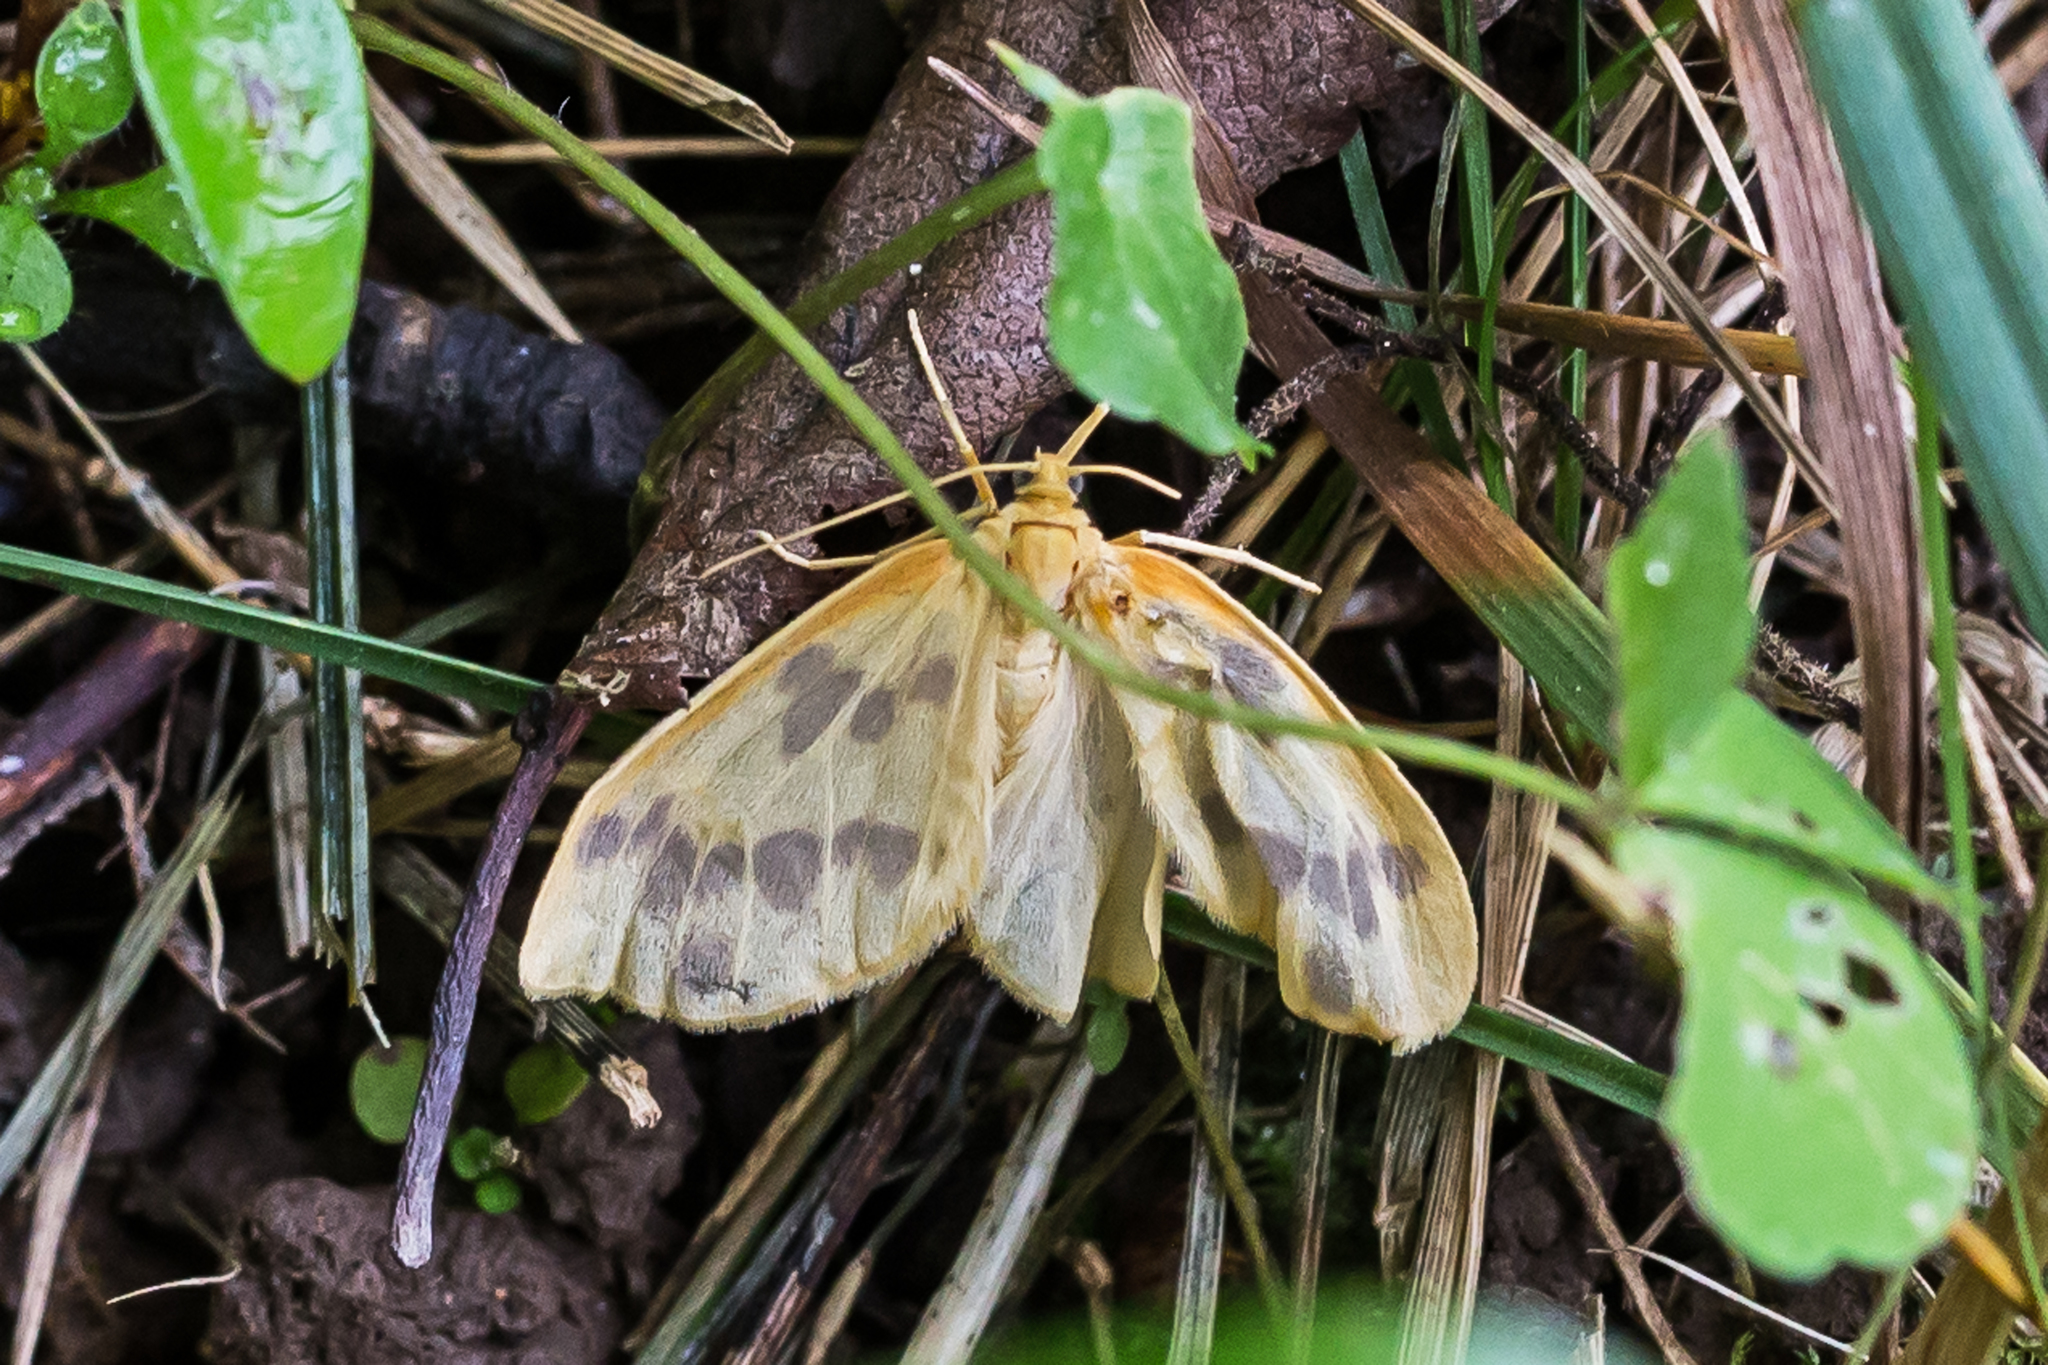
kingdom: Animalia
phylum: Arthropoda
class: Insecta
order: Lepidoptera
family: Geometridae
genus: Eubaphe
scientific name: Eubaphe mendica
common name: Beggar
